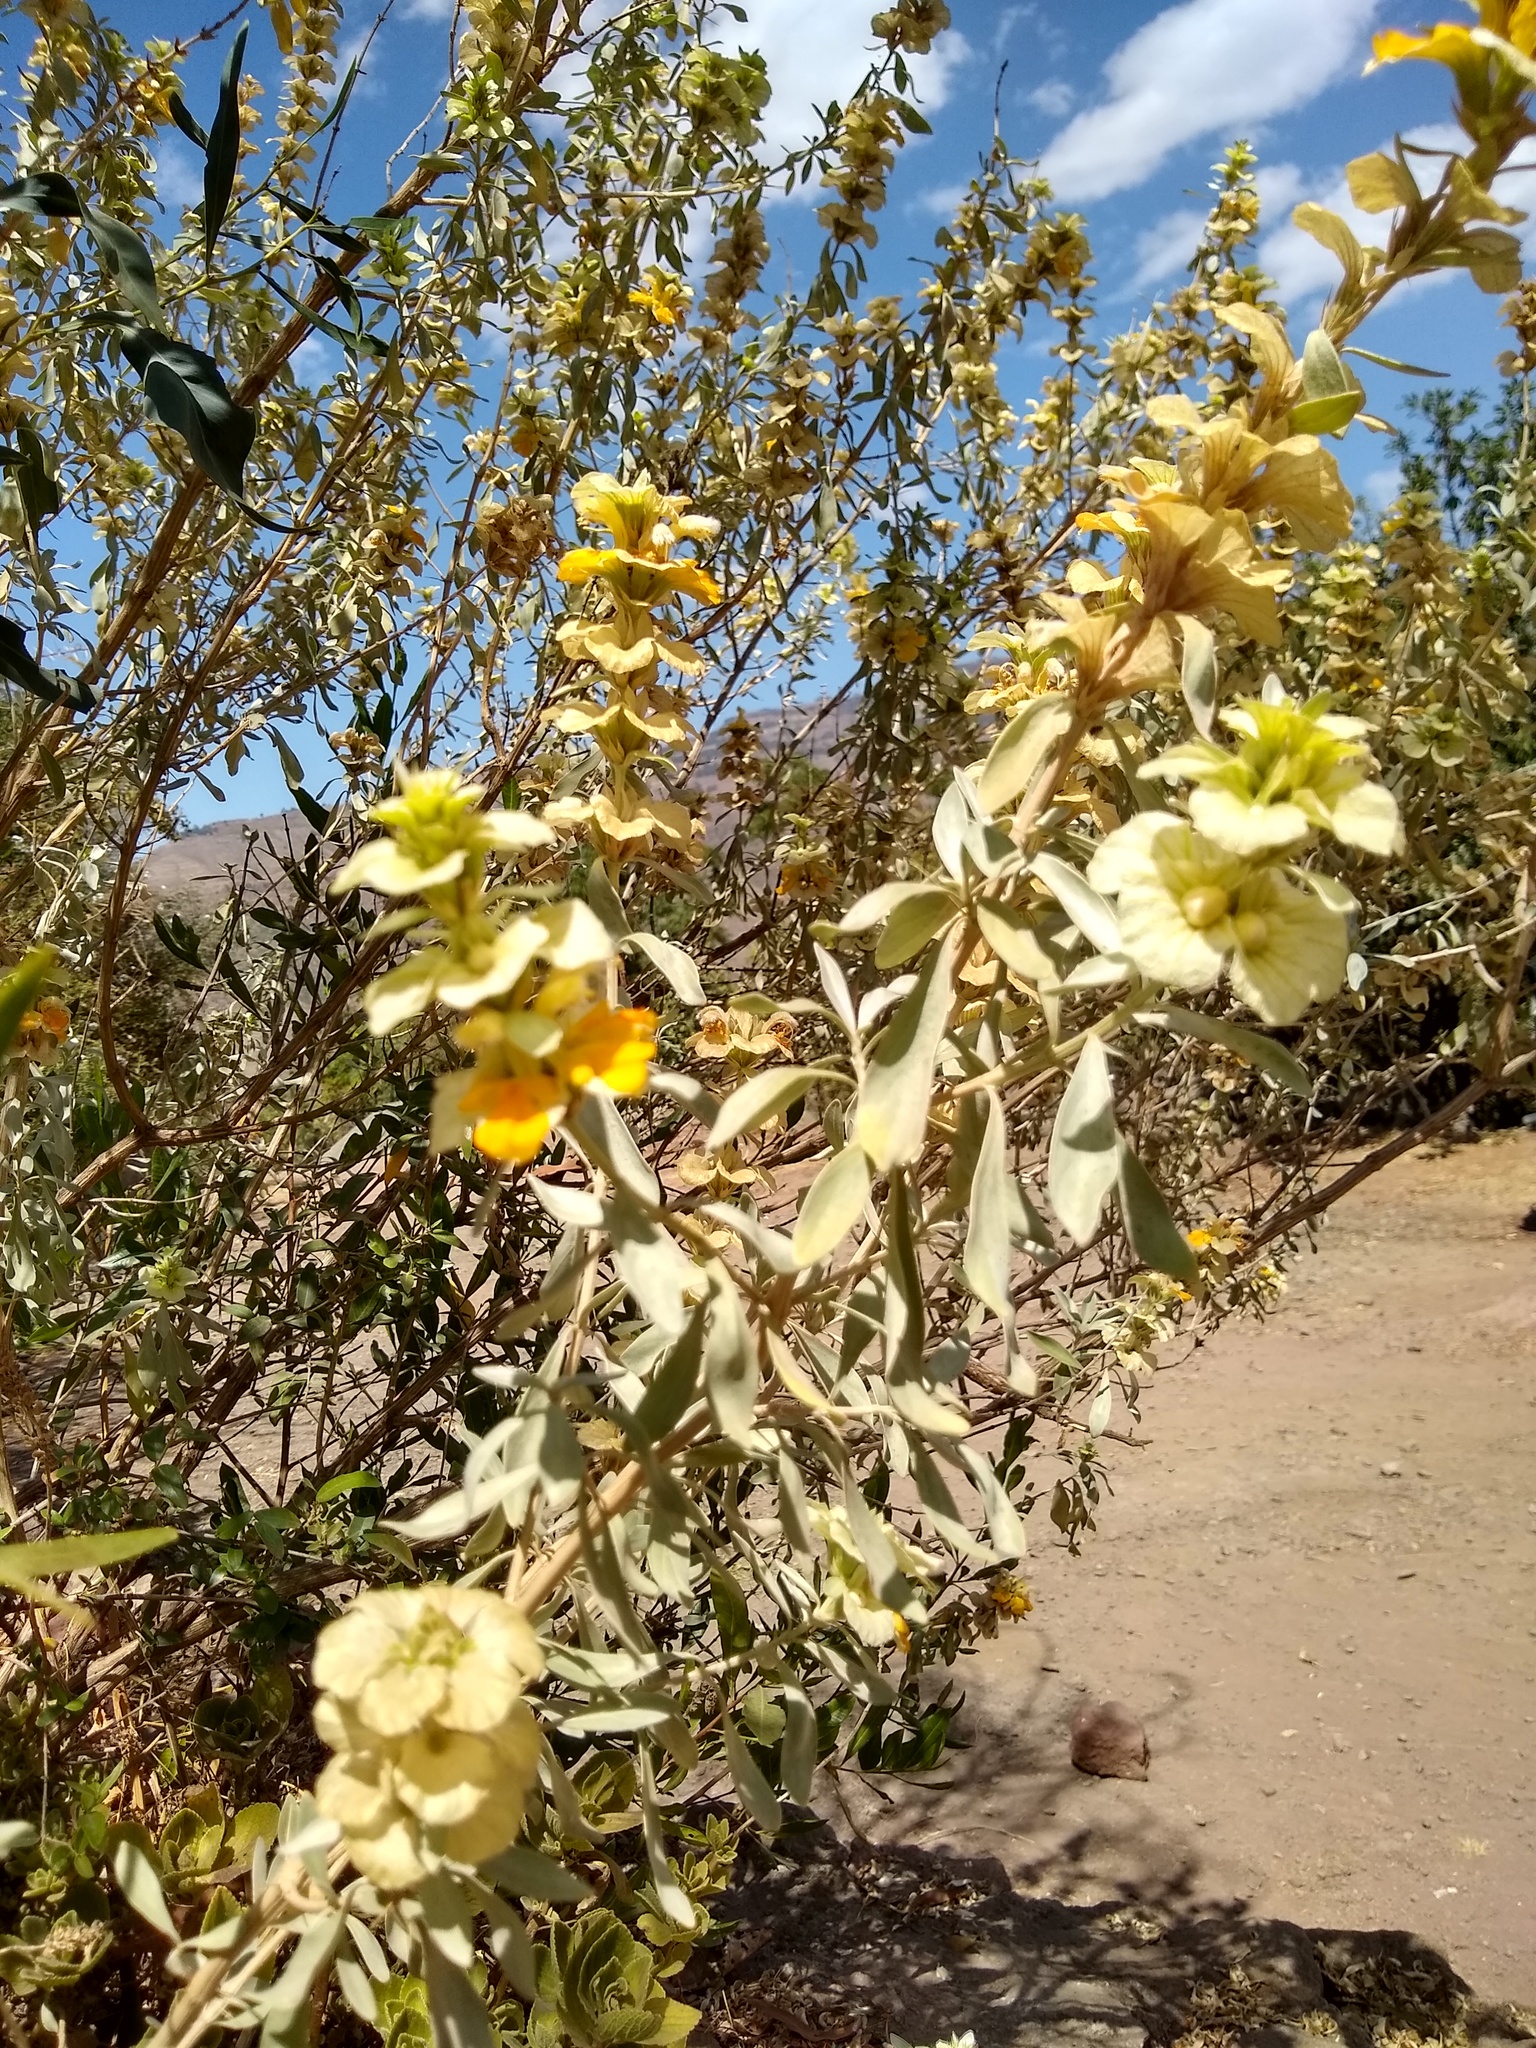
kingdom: Plantae
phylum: Tracheophyta
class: Magnoliopsida
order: Lamiales
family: Lamiaceae
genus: Rydingia
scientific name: Rydingia integrifolia
